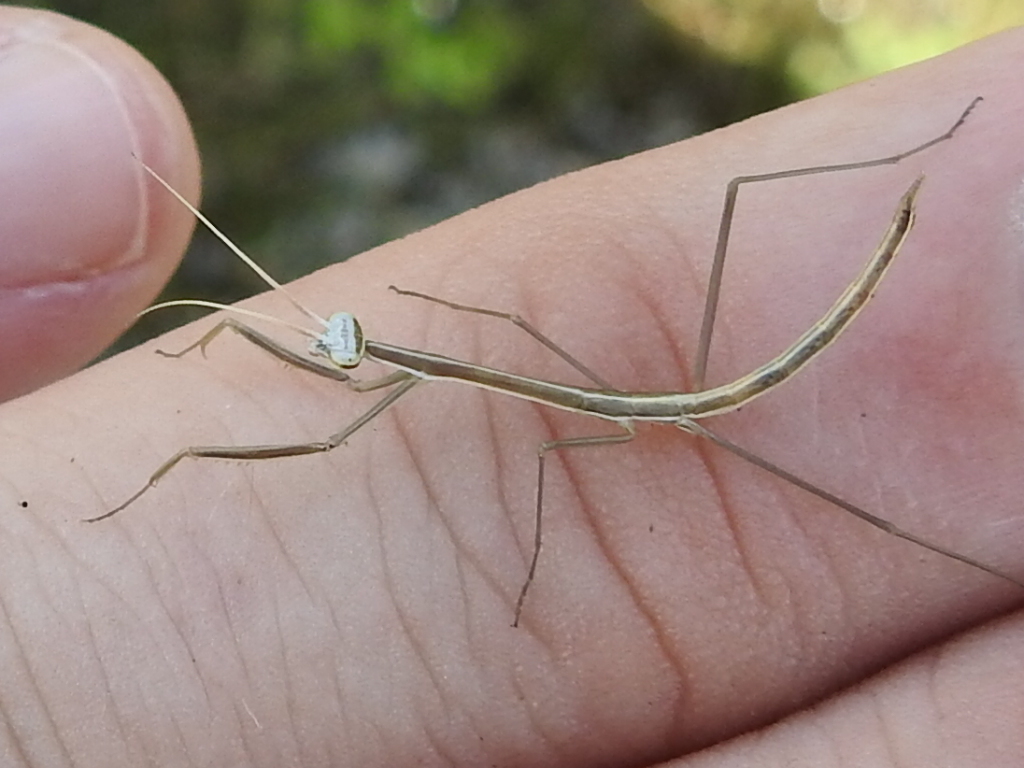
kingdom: Animalia
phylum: Arthropoda
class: Insecta
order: Mantodea
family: Coptopterygidae
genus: Brunneria
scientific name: Brunneria borealis
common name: Mantis
